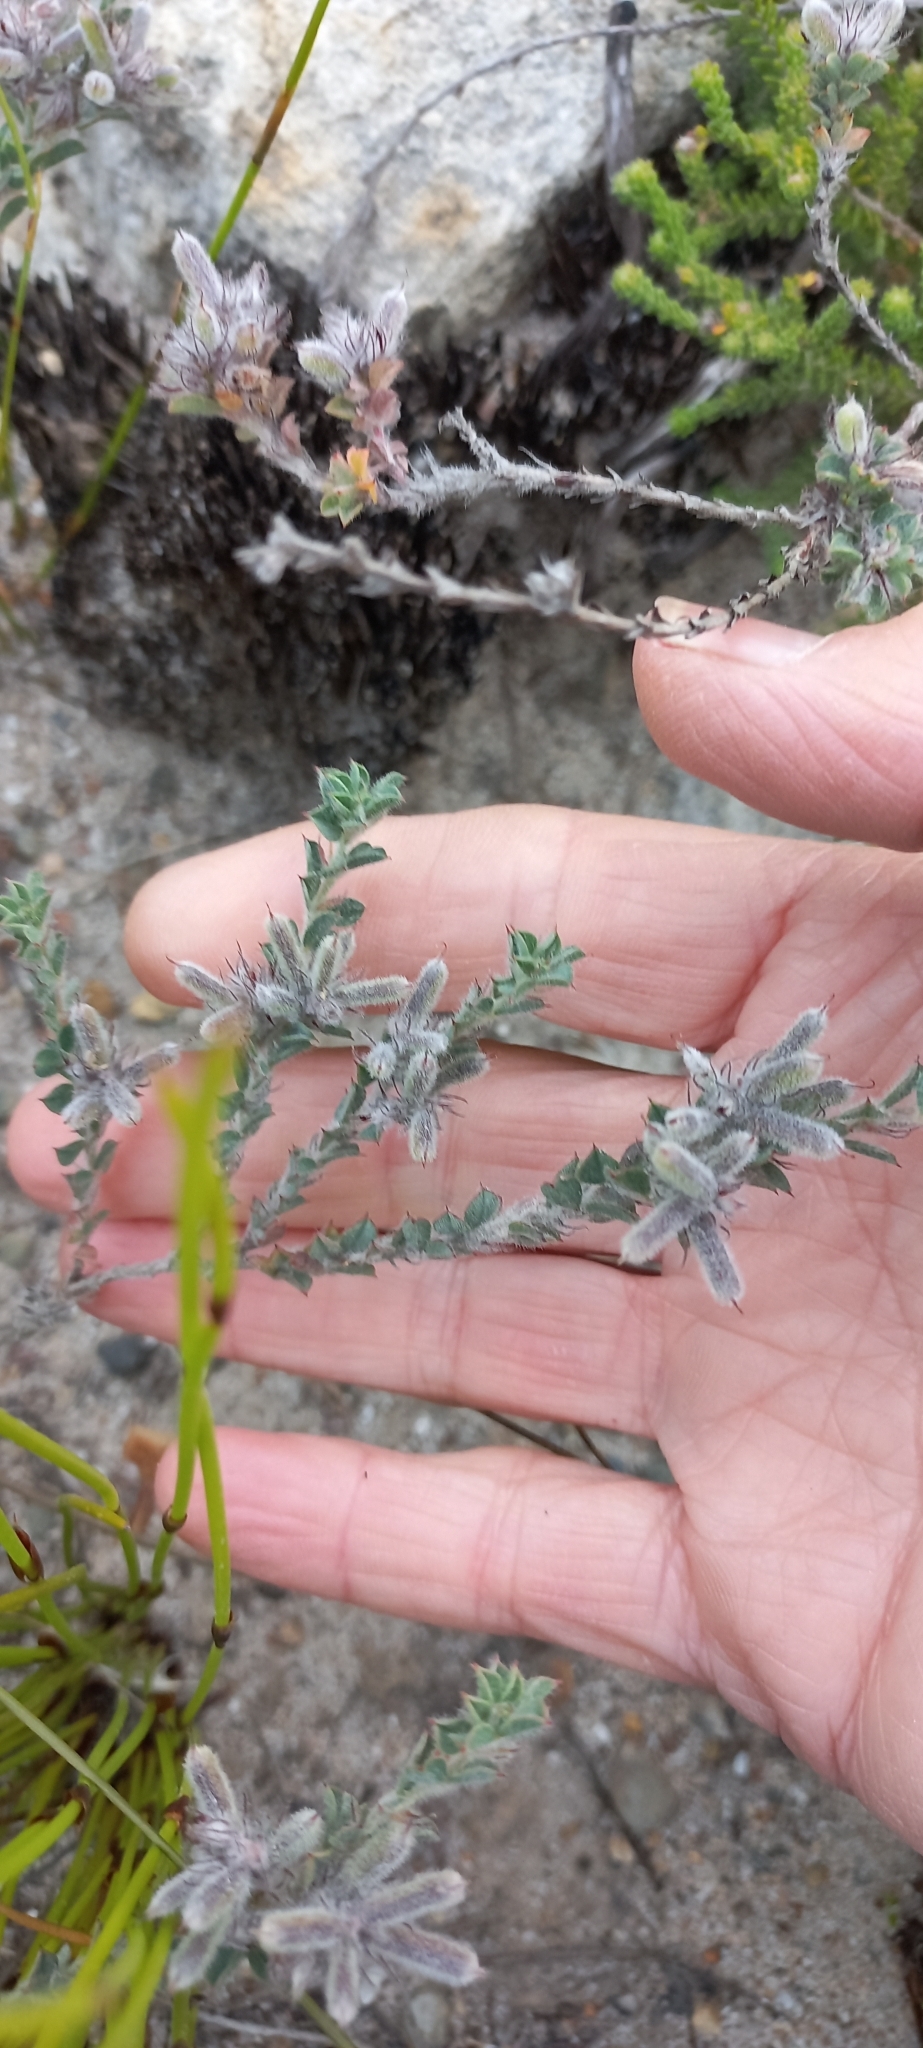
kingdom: Plantae
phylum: Tracheophyta
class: Magnoliopsida
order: Fabales
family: Fabaceae
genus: Indigofera
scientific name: Indigofera glomerata
